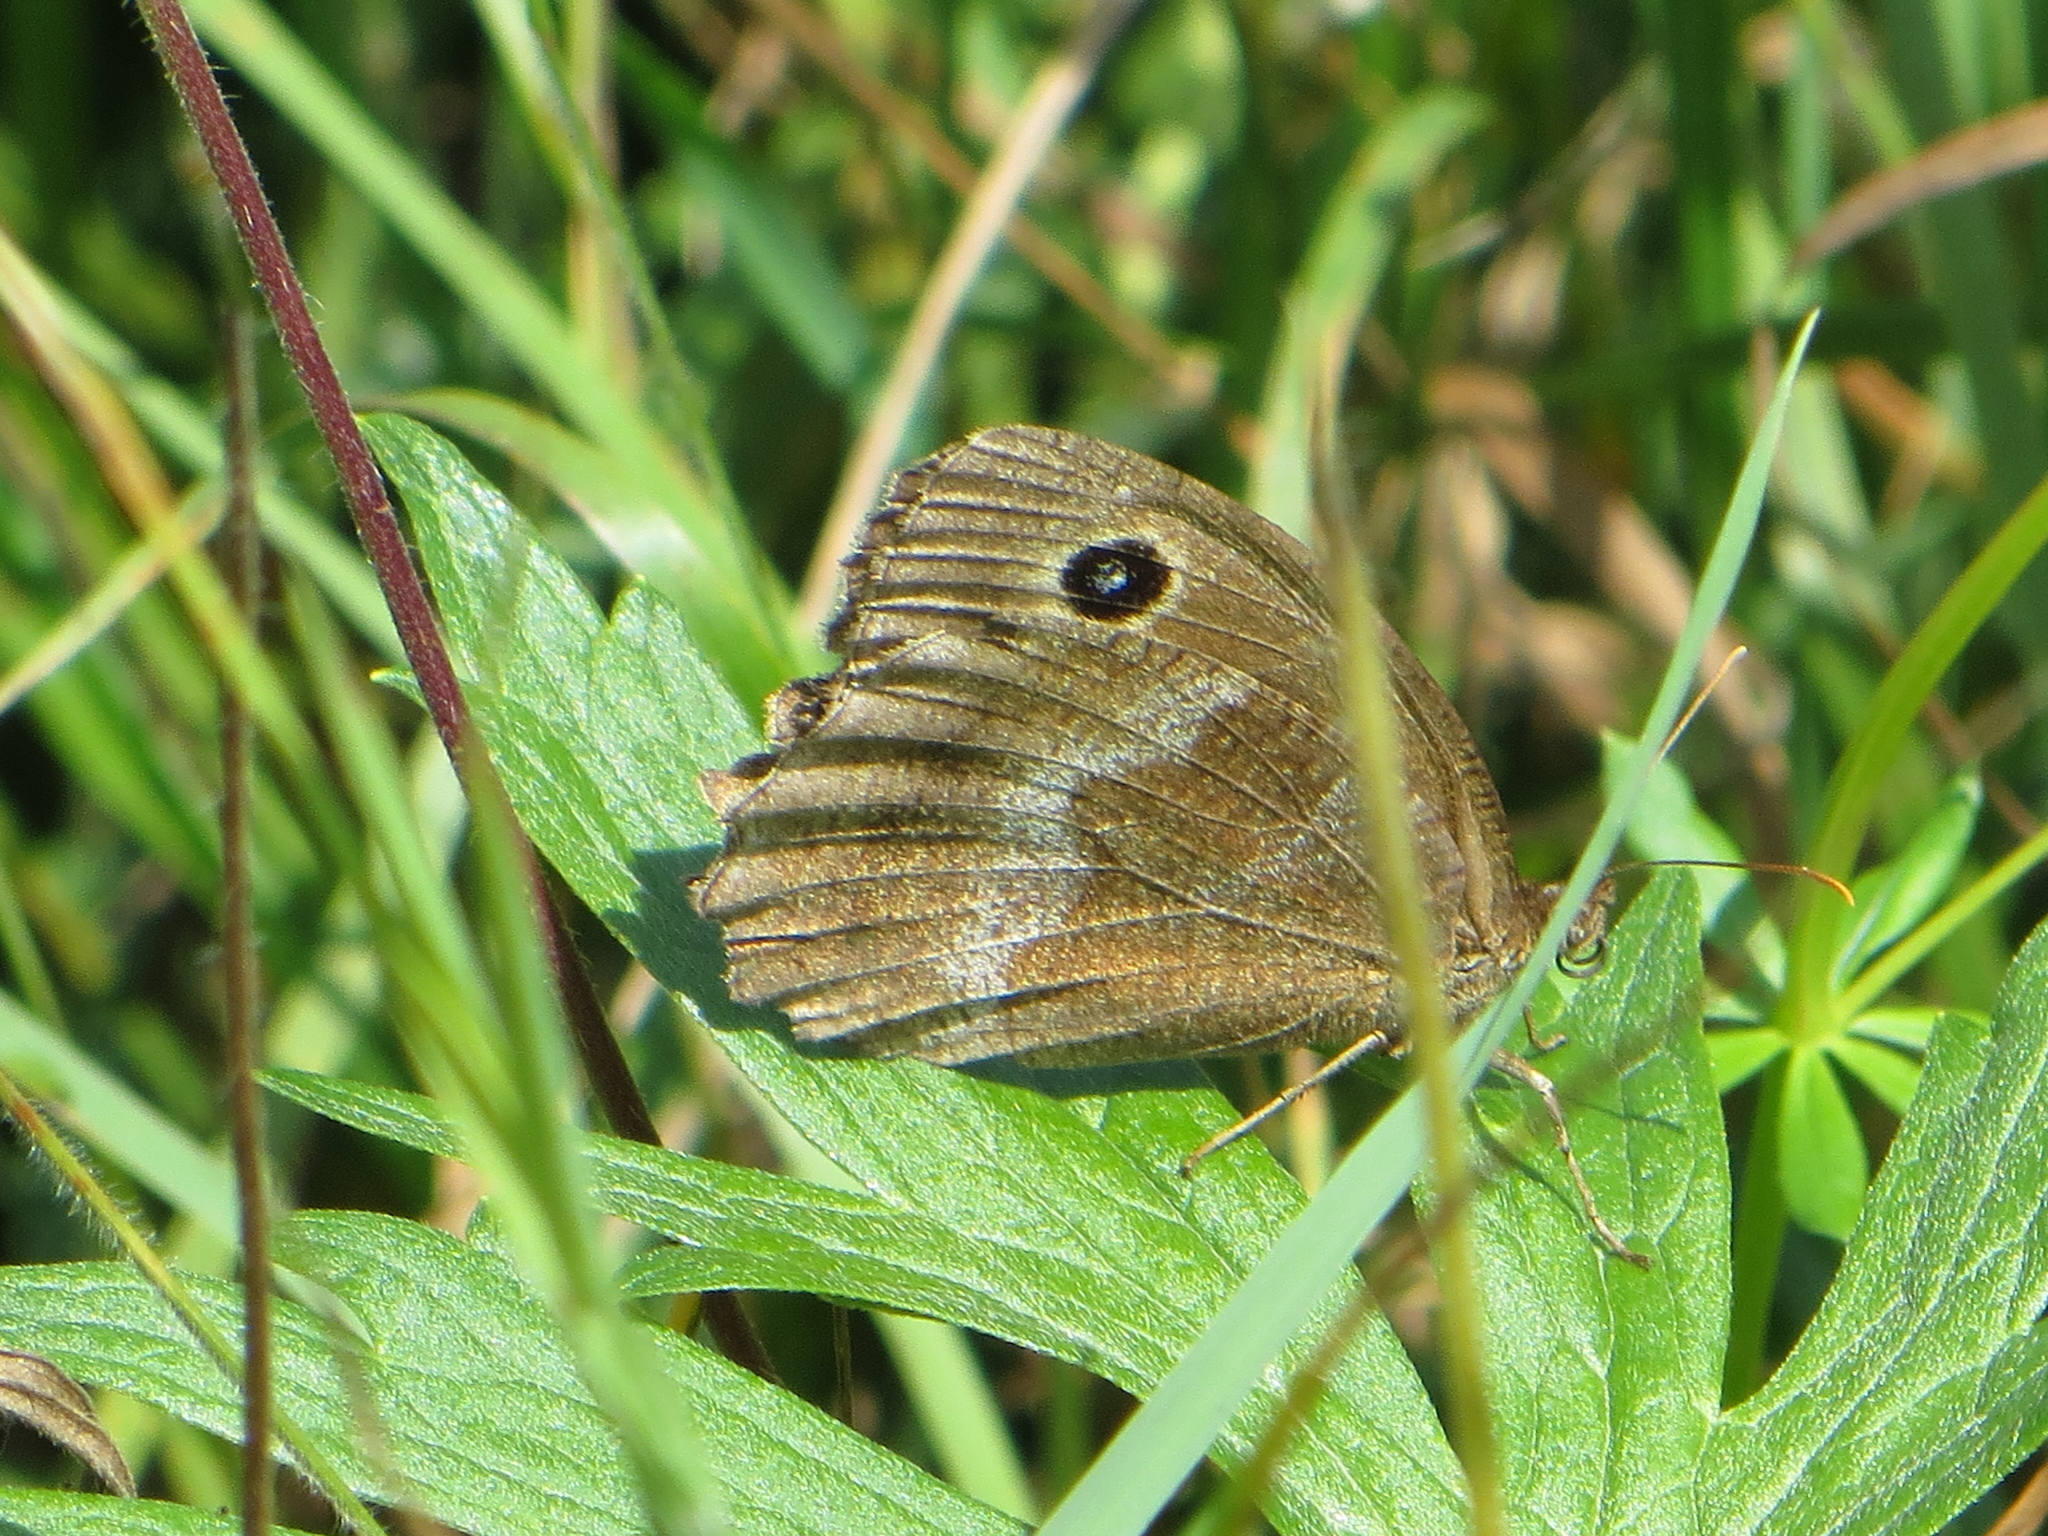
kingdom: Animalia
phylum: Arthropoda
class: Insecta
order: Lepidoptera
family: Nymphalidae
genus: Minois
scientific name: Minois dryas
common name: Dryad
